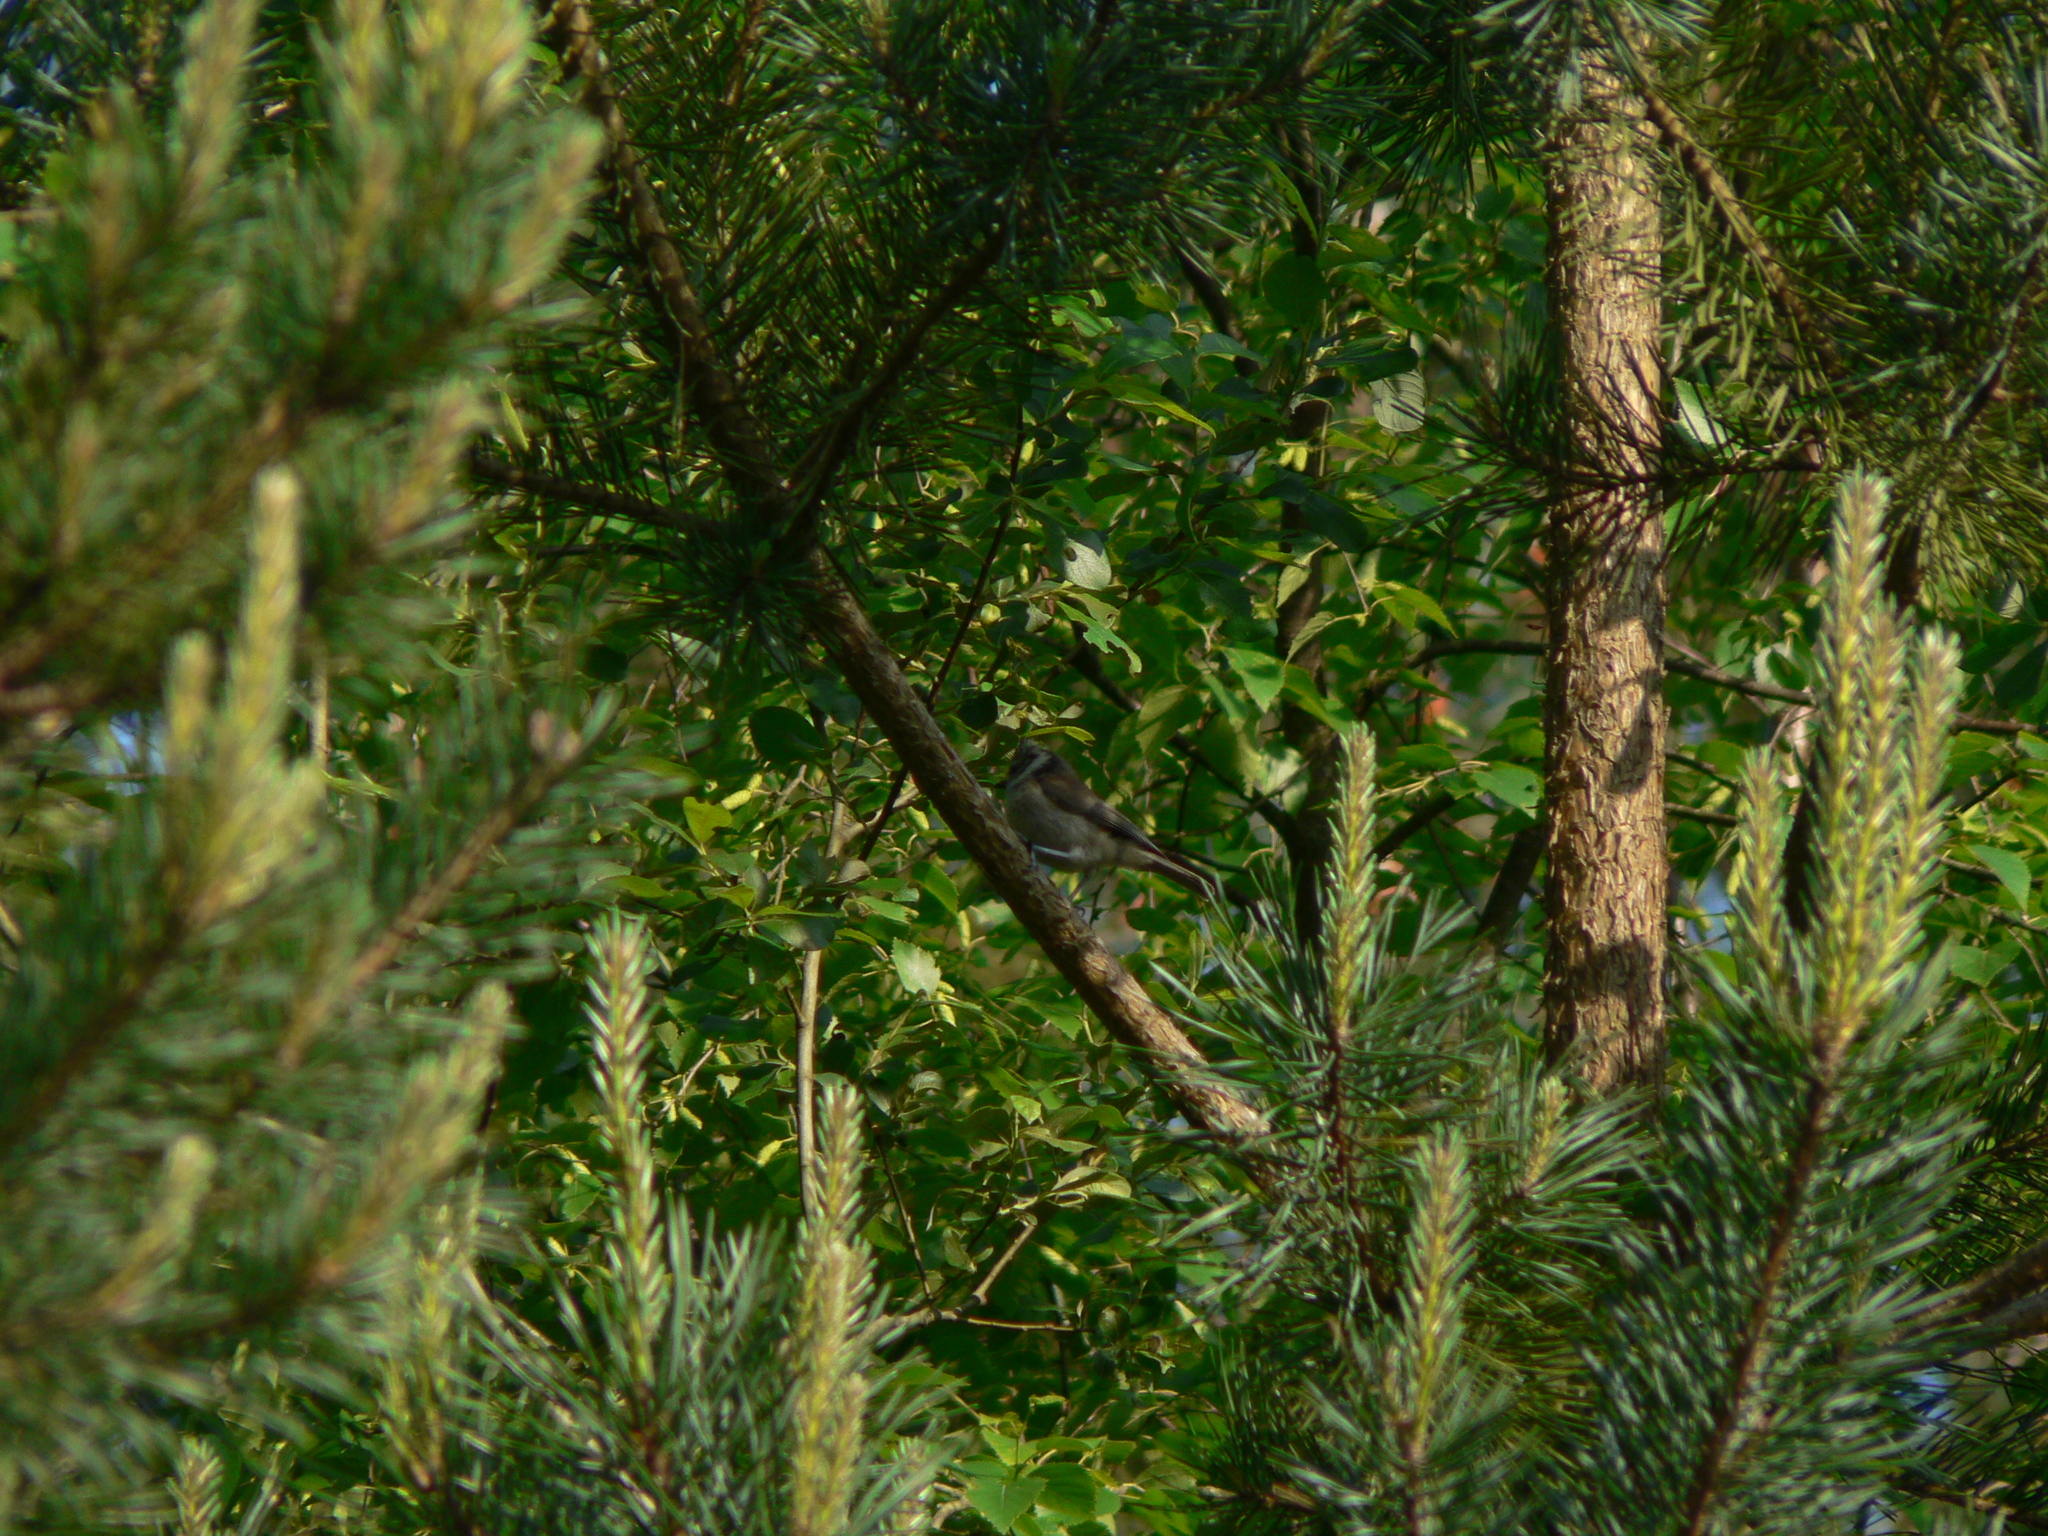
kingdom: Animalia
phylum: Chordata
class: Aves
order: Passeriformes
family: Paridae
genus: Lophophanes
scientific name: Lophophanes cristatus
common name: European crested tit
